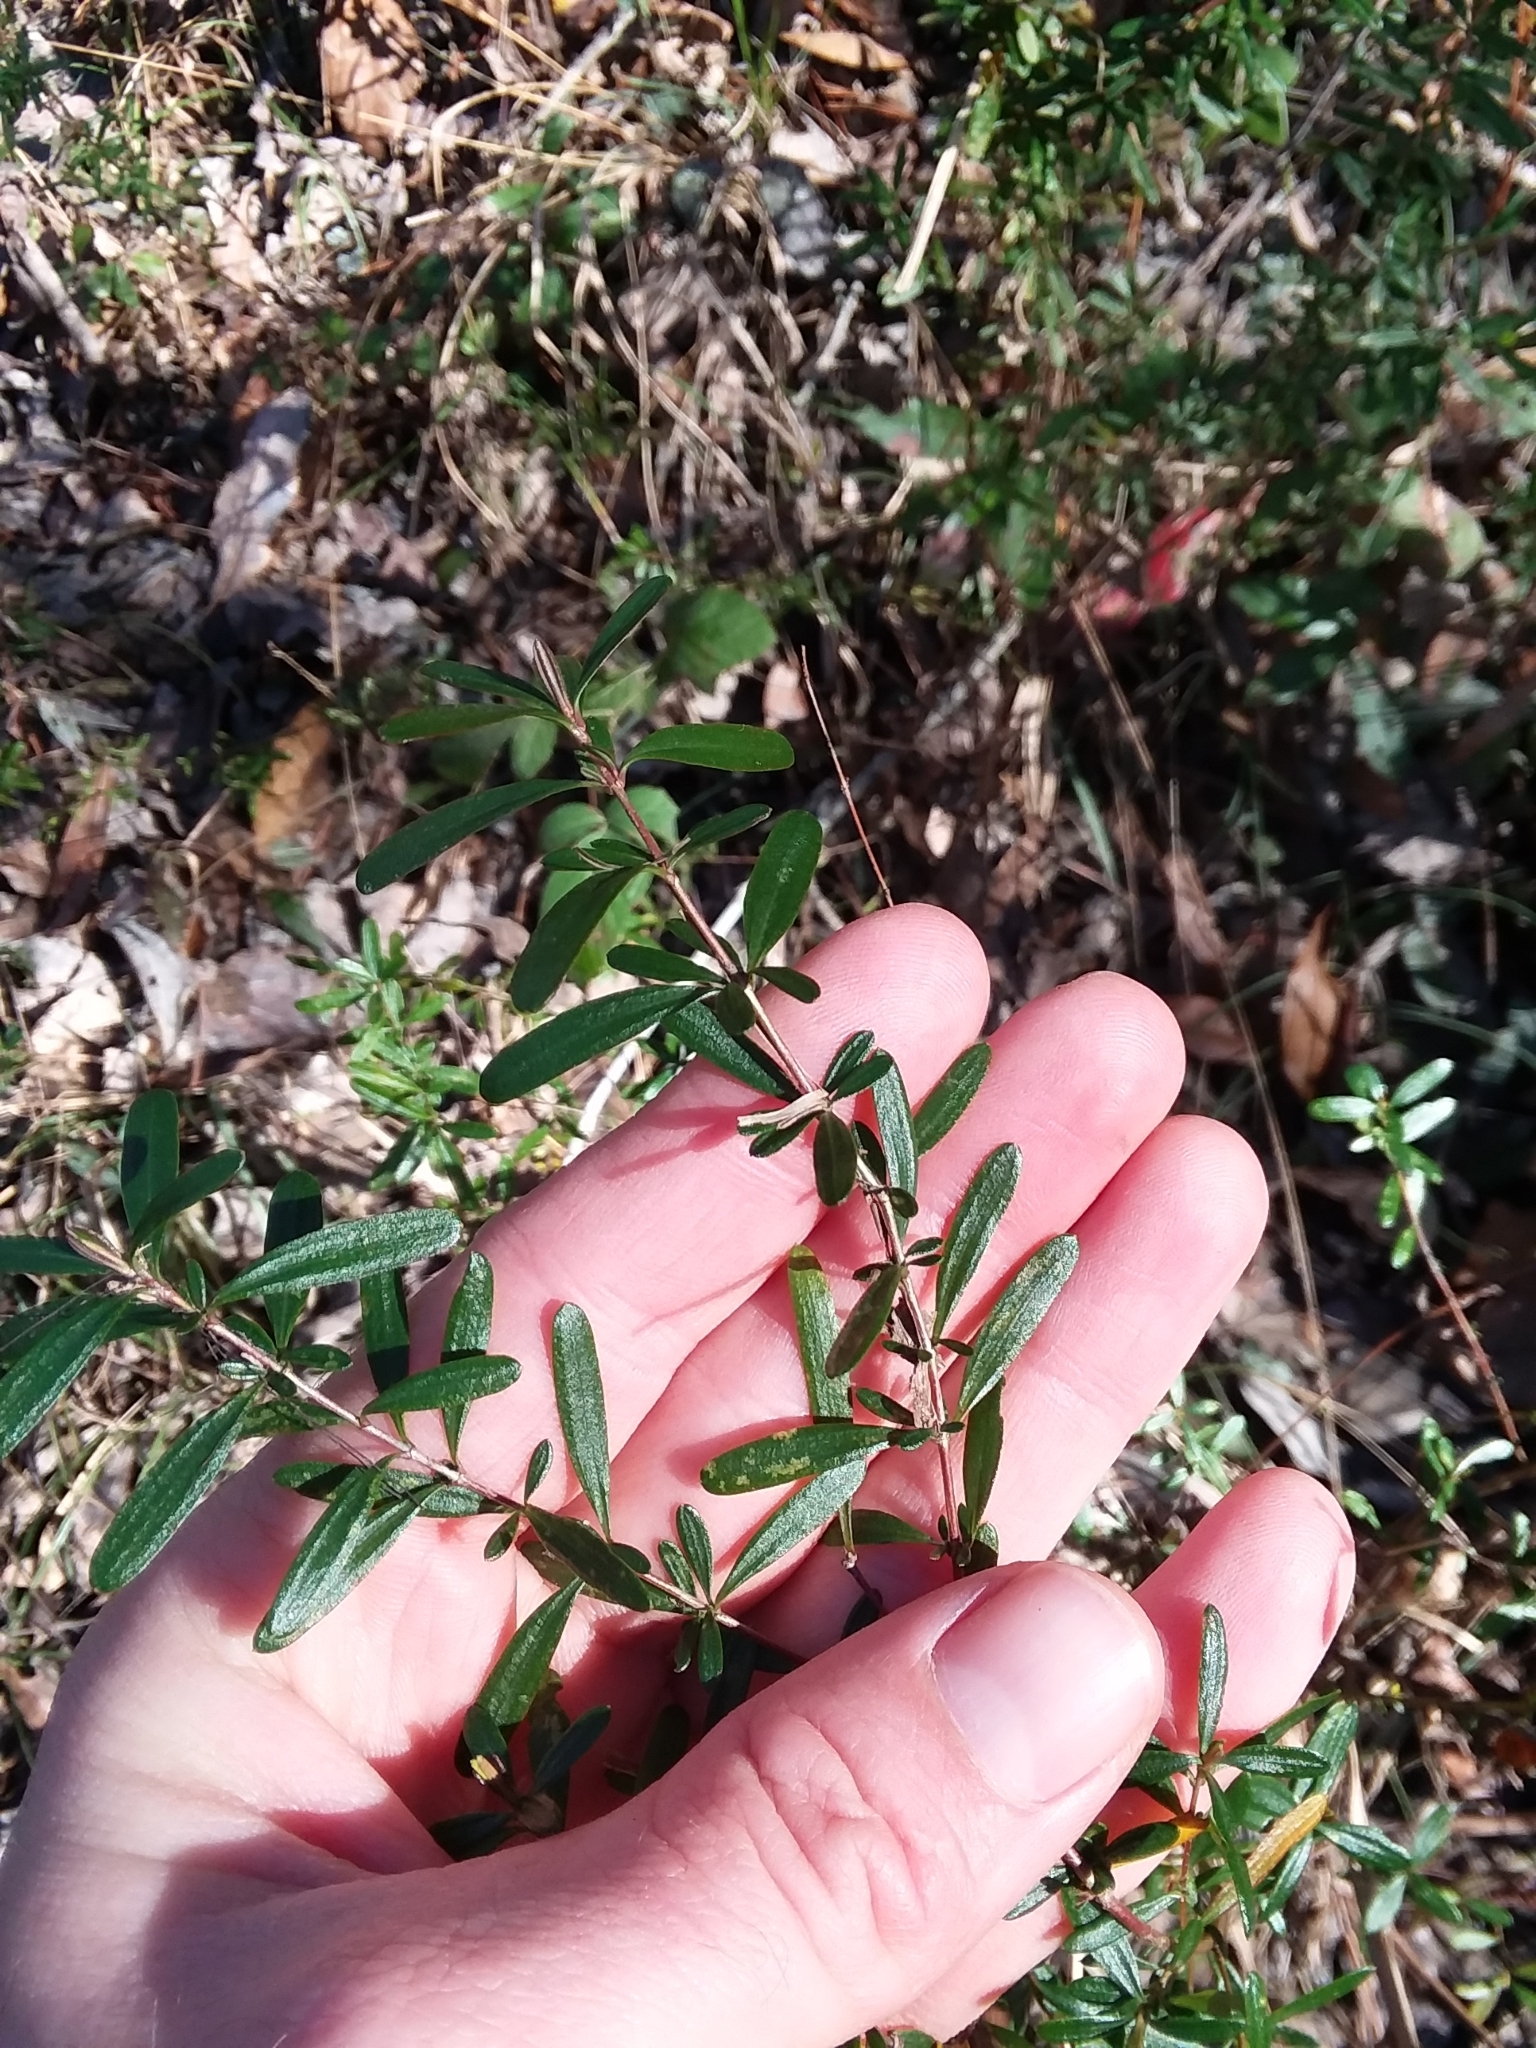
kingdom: Plantae
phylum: Tracheophyta
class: Magnoliopsida
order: Malpighiales
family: Hypericaceae
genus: Hypericum
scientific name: Hypericum galioides
